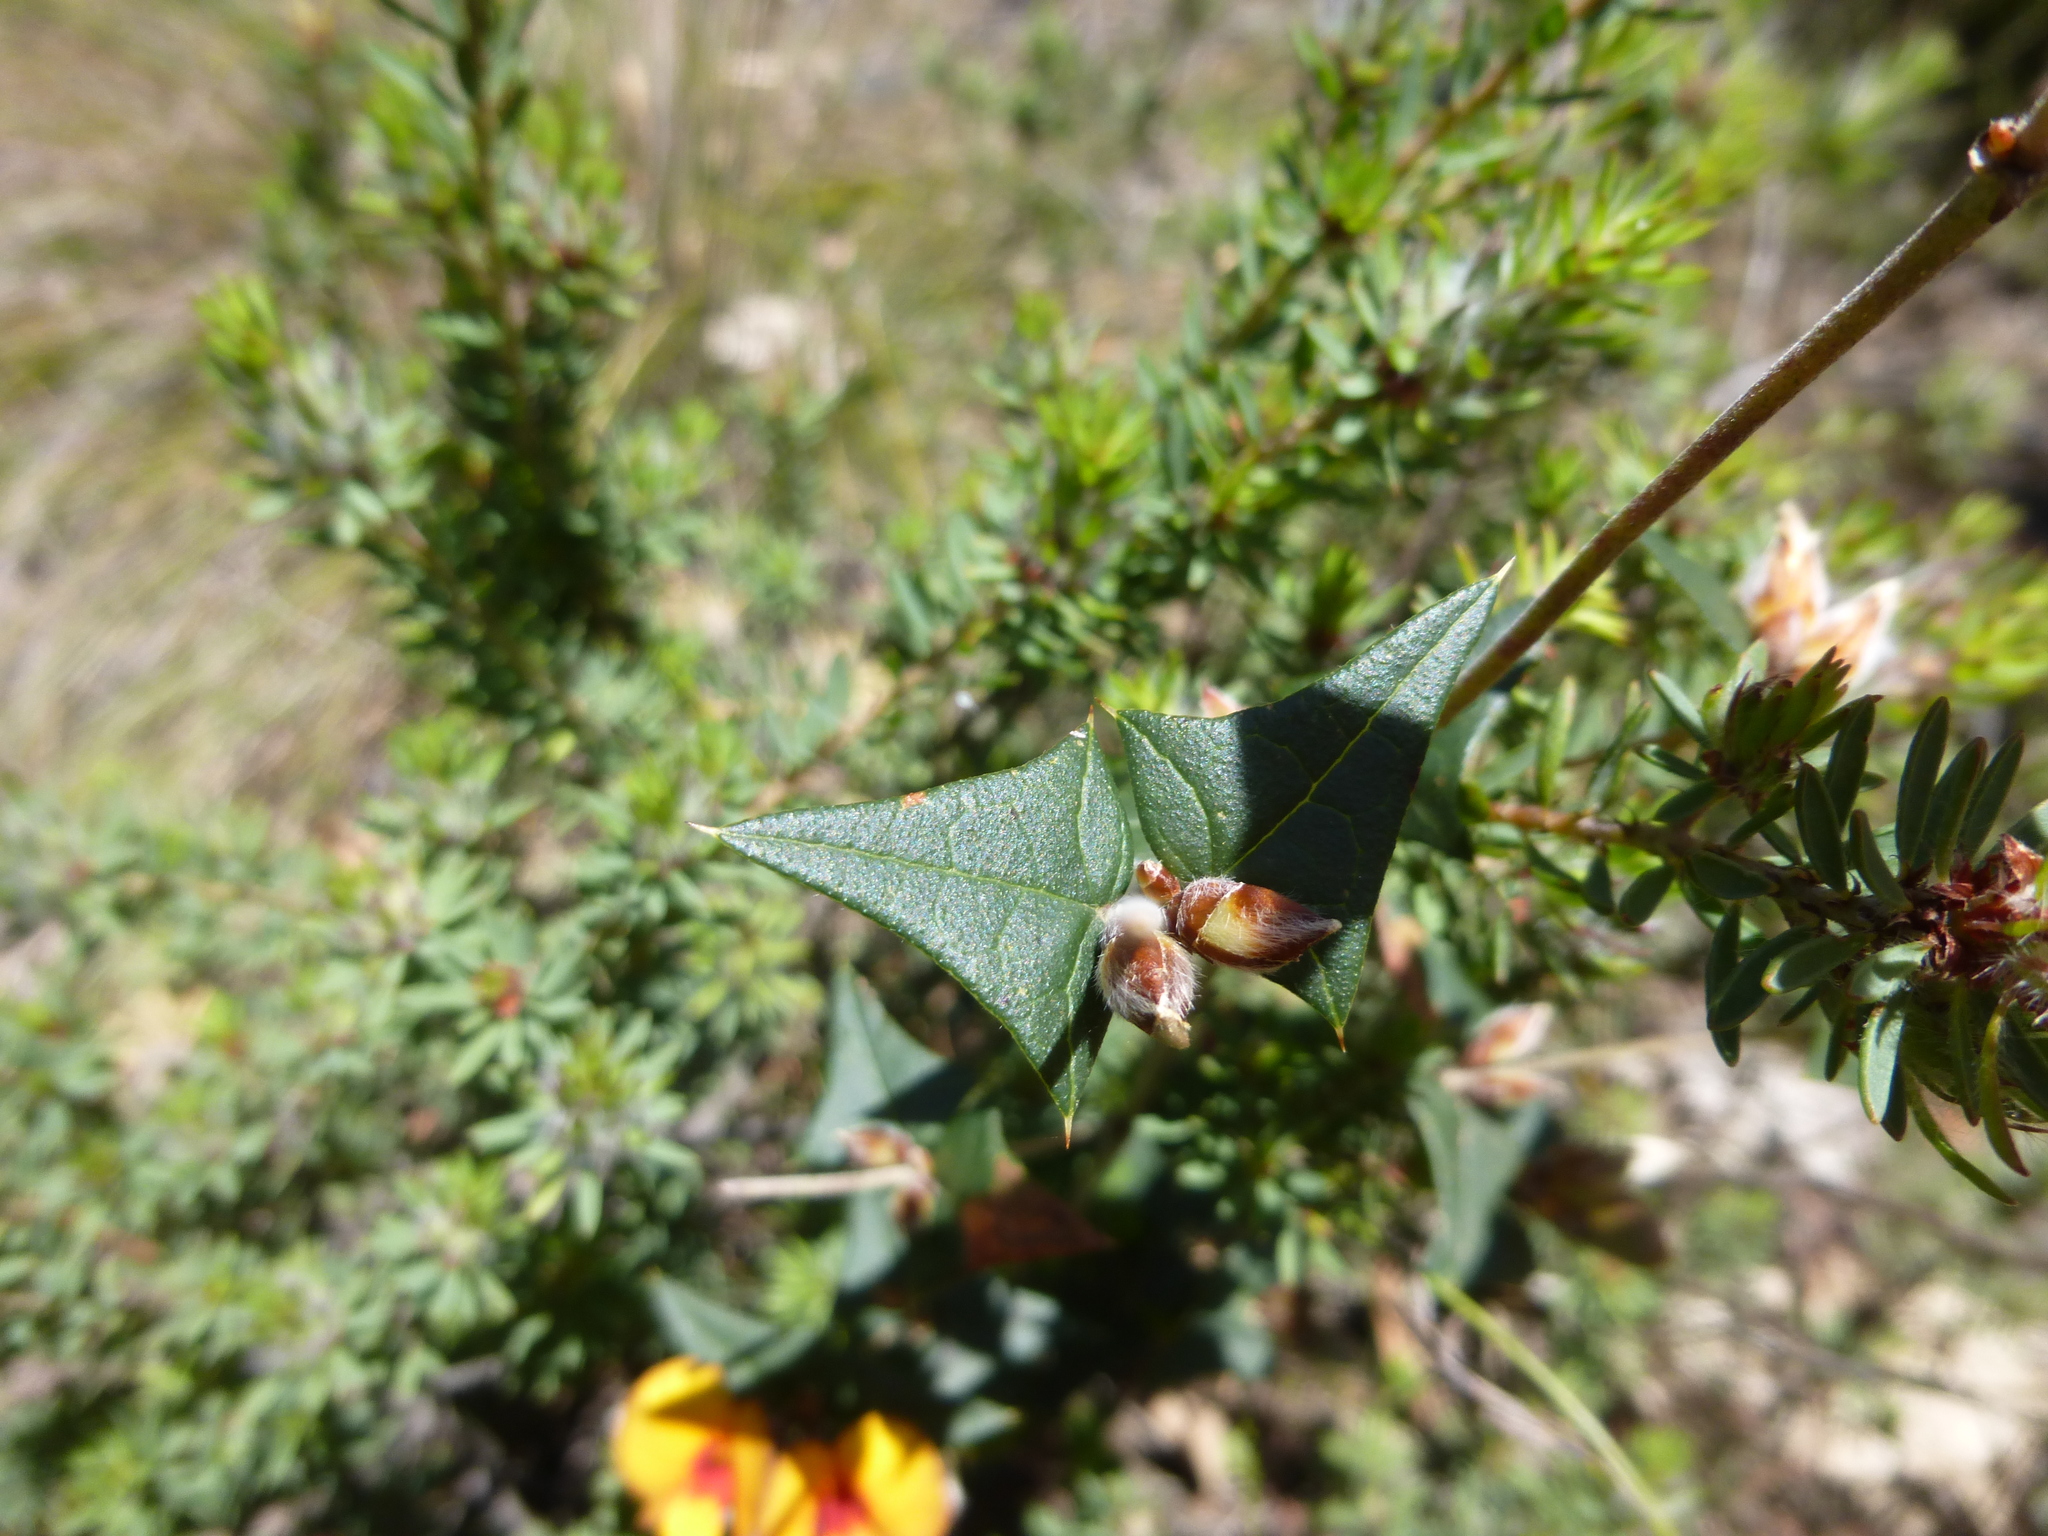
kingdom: Plantae
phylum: Tracheophyta
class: Magnoliopsida
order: Fabales
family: Fabaceae
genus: Platylobium
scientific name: Platylobium obtusangulum
